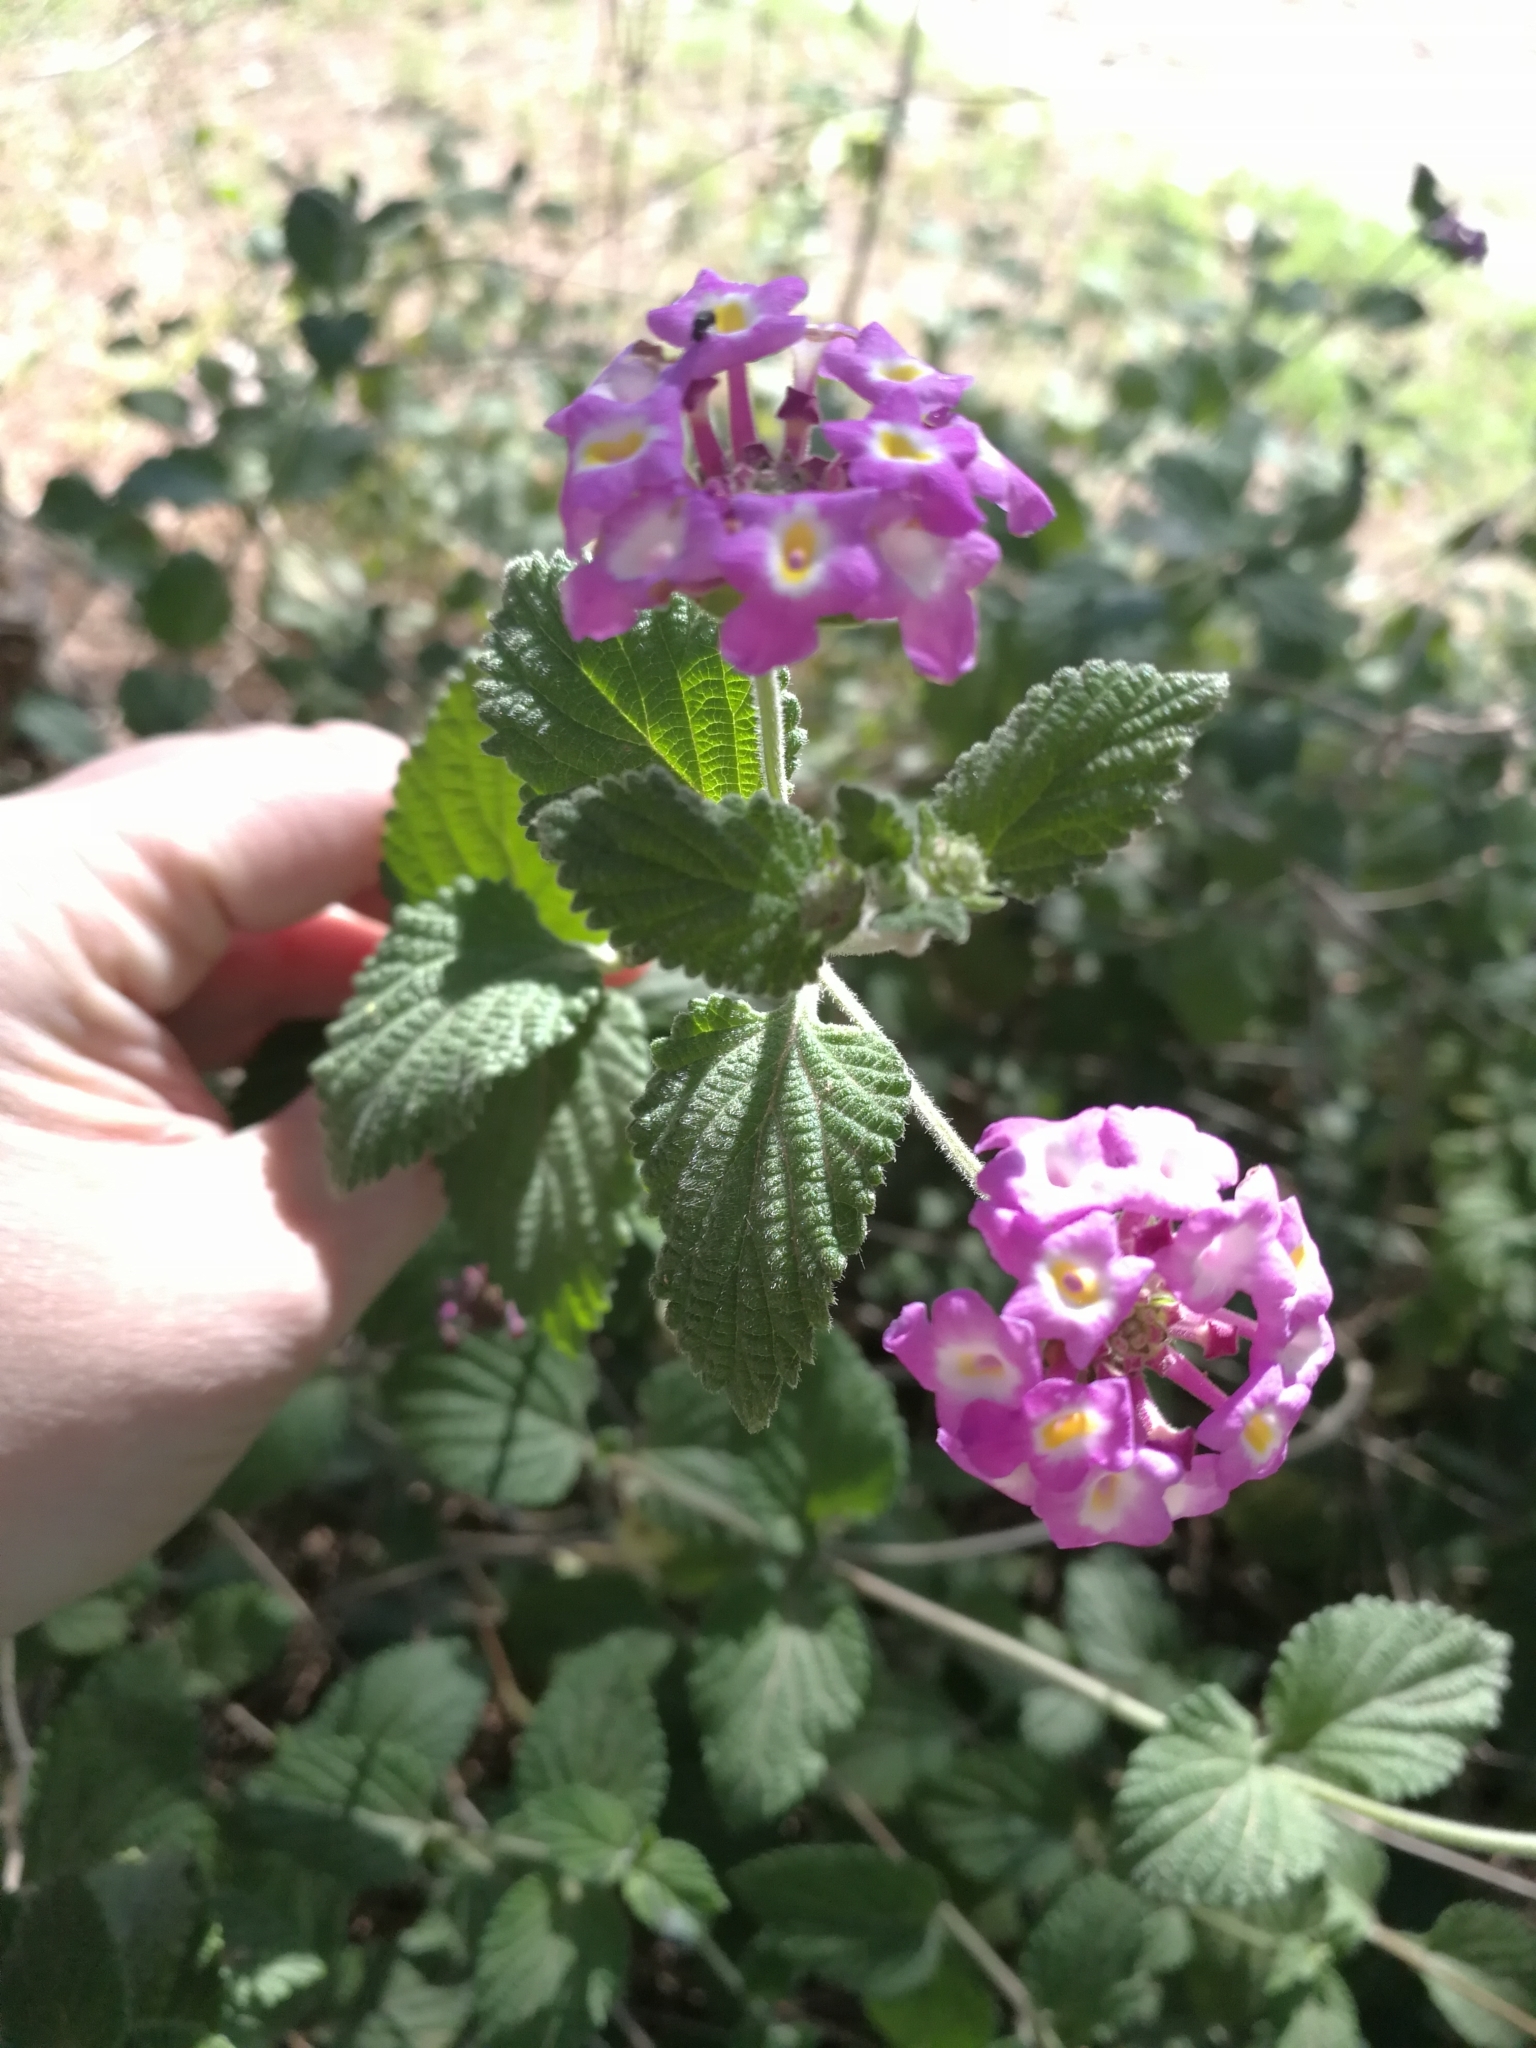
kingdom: Plantae
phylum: Tracheophyta
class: Magnoliopsida
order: Lamiales
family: Verbenaceae
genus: Lantana
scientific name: Lantana montevidensis
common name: Trailing shrubverbena
